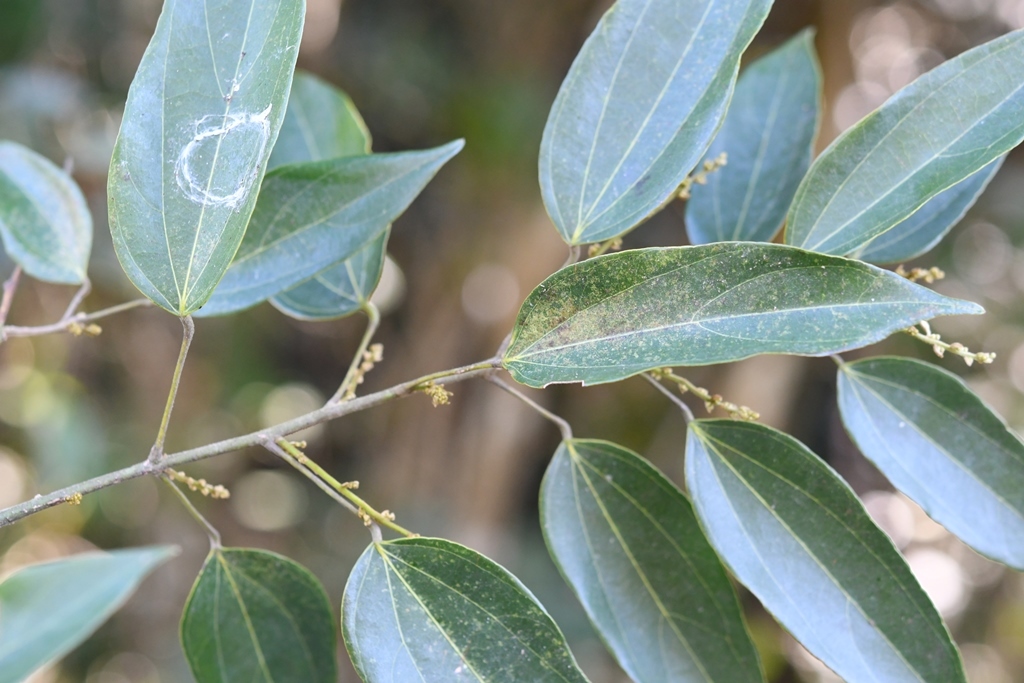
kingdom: Plantae
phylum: Tracheophyta
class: Magnoliopsida
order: Ranunculales
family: Menispermaceae
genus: Abuta
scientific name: Abuta chiapasensis
